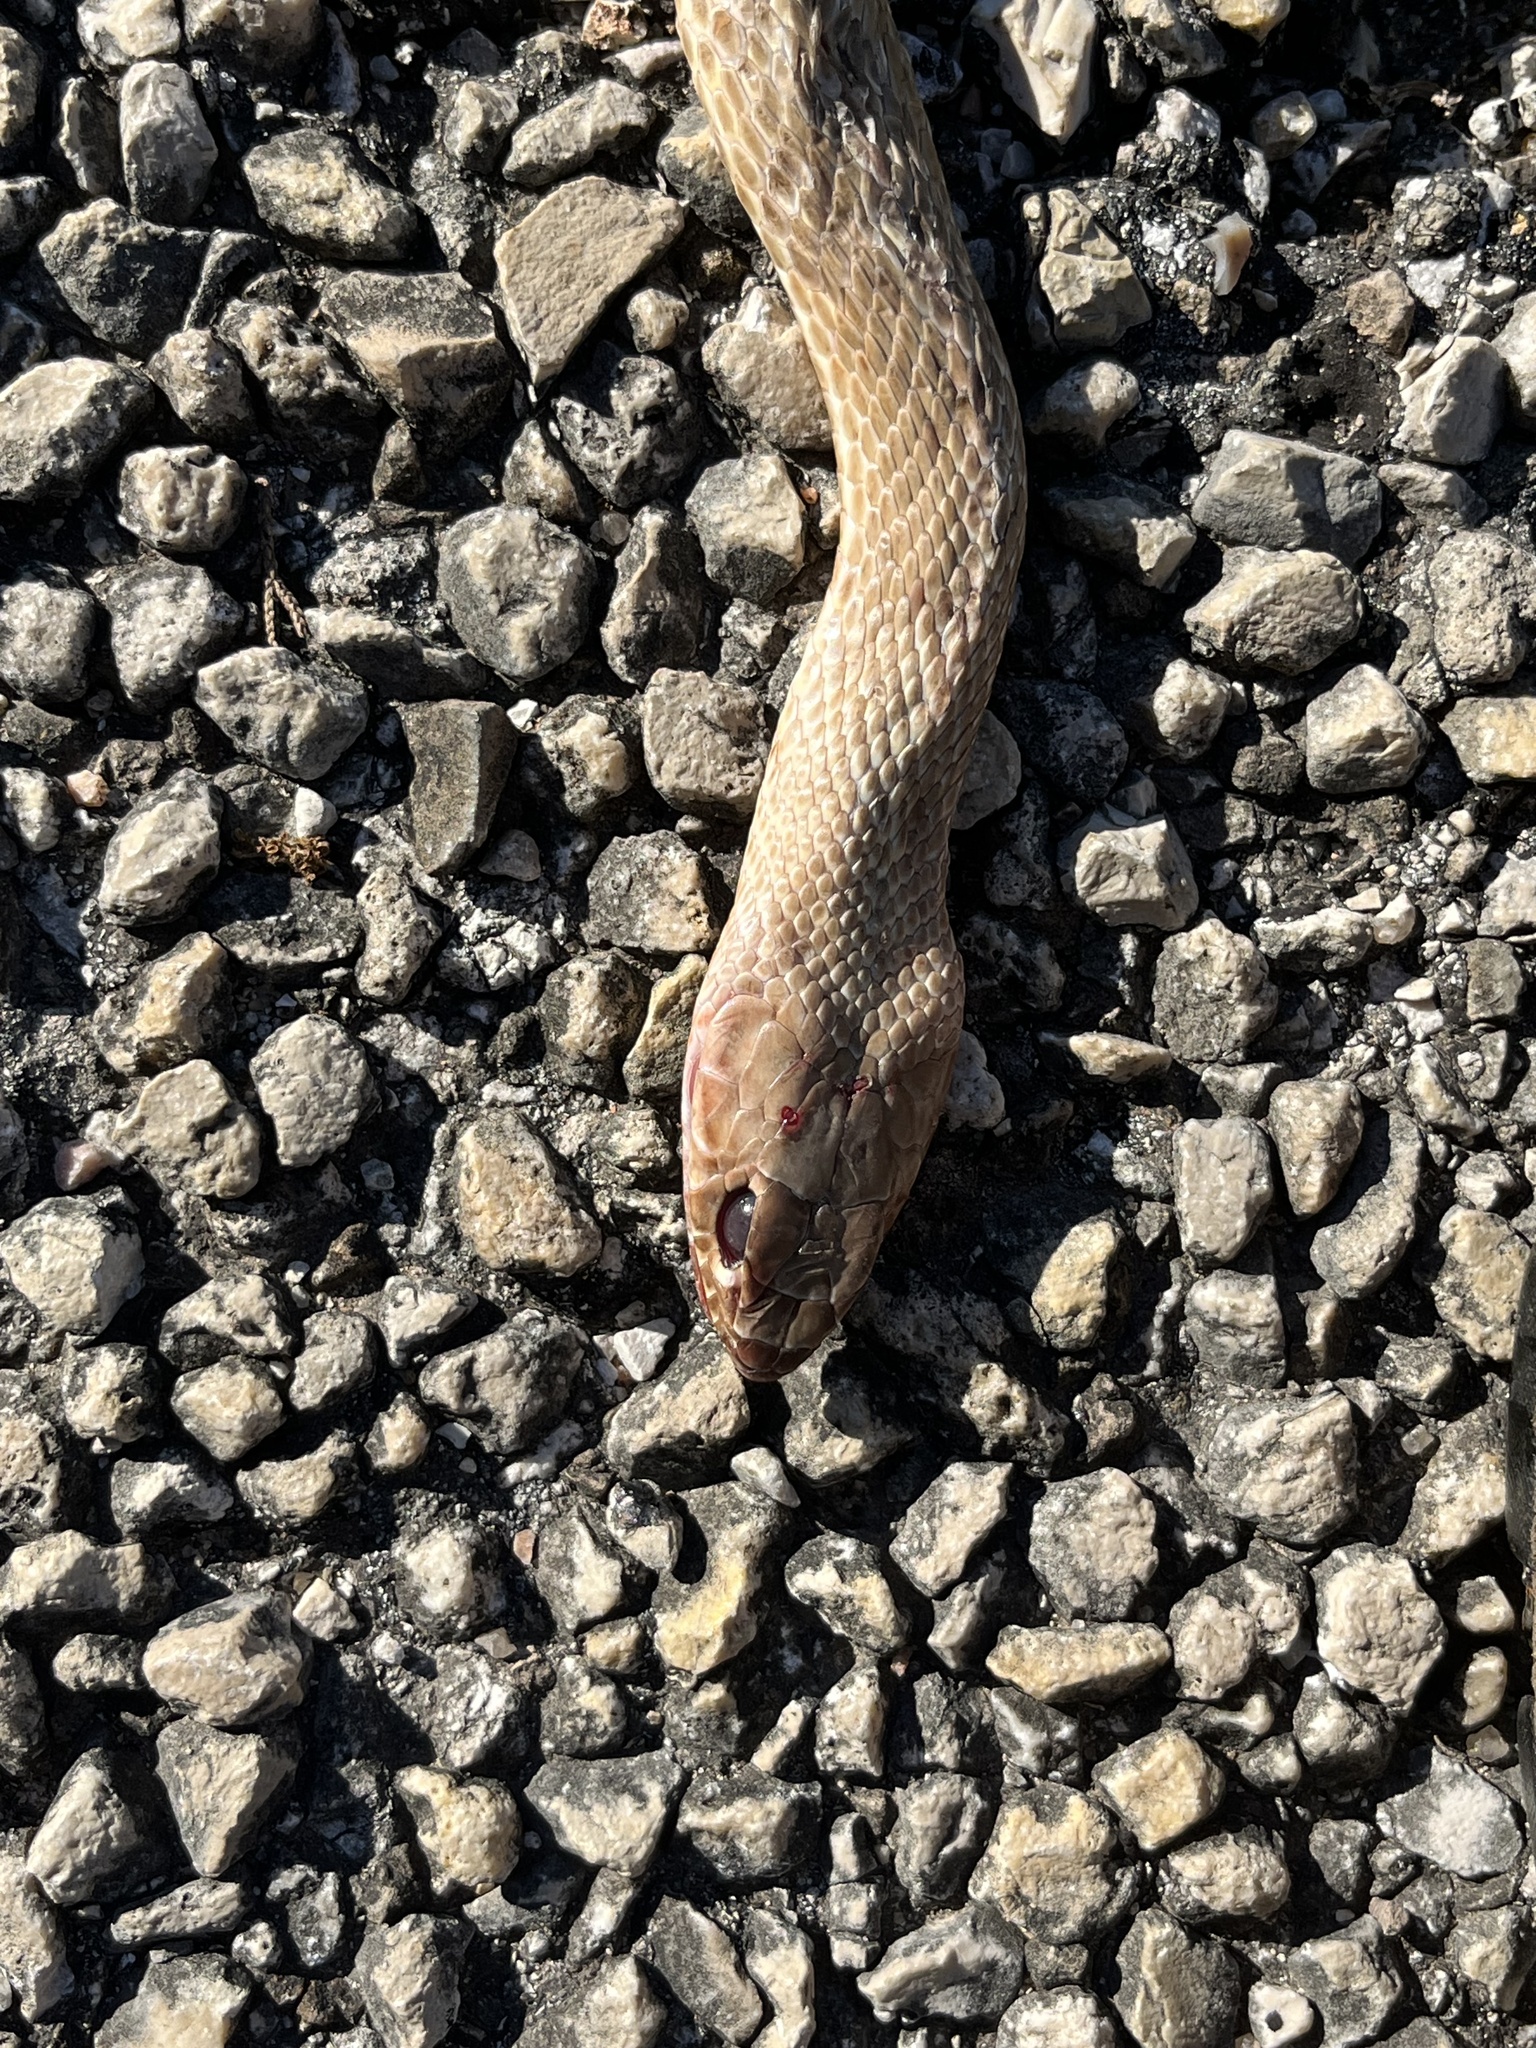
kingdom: Animalia
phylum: Chordata
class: Squamata
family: Colubridae
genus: Masticophis
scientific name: Masticophis flagellum
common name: Coachwhip
